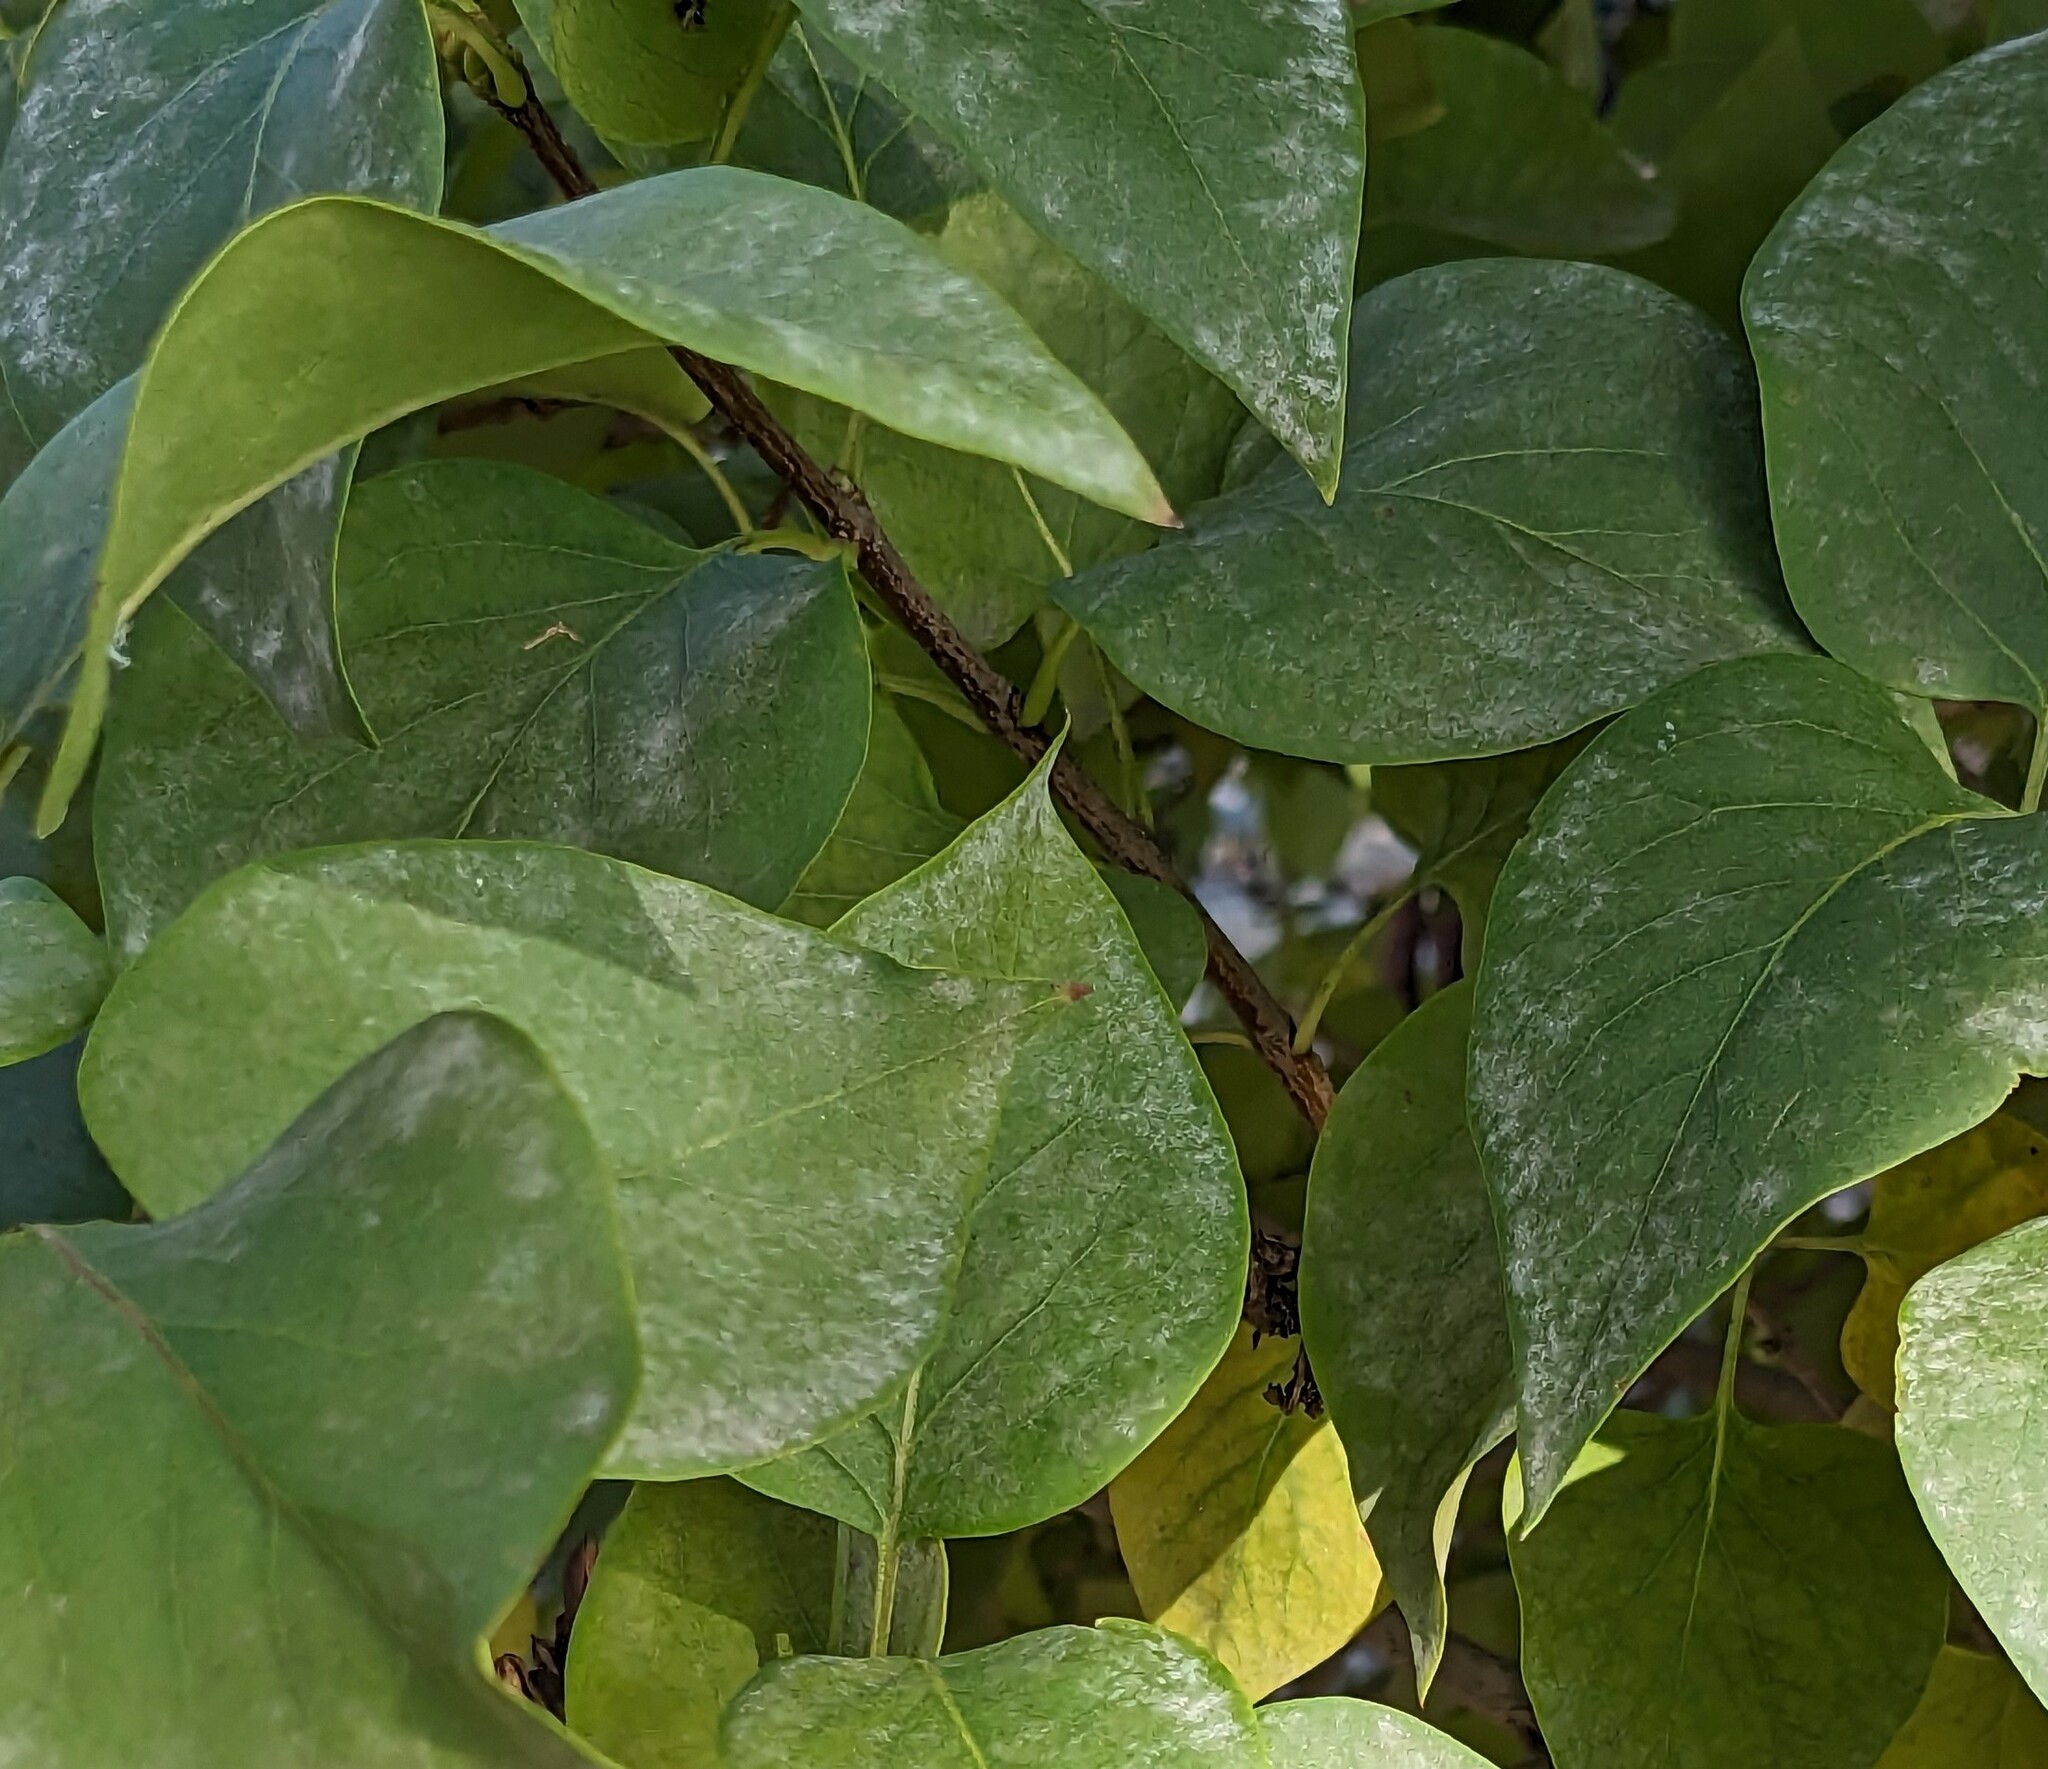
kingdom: Fungi
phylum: Ascomycota
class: Leotiomycetes
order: Helotiales
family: Erysiphaceae
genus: Erysiphe
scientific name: Erysiphe syringae
